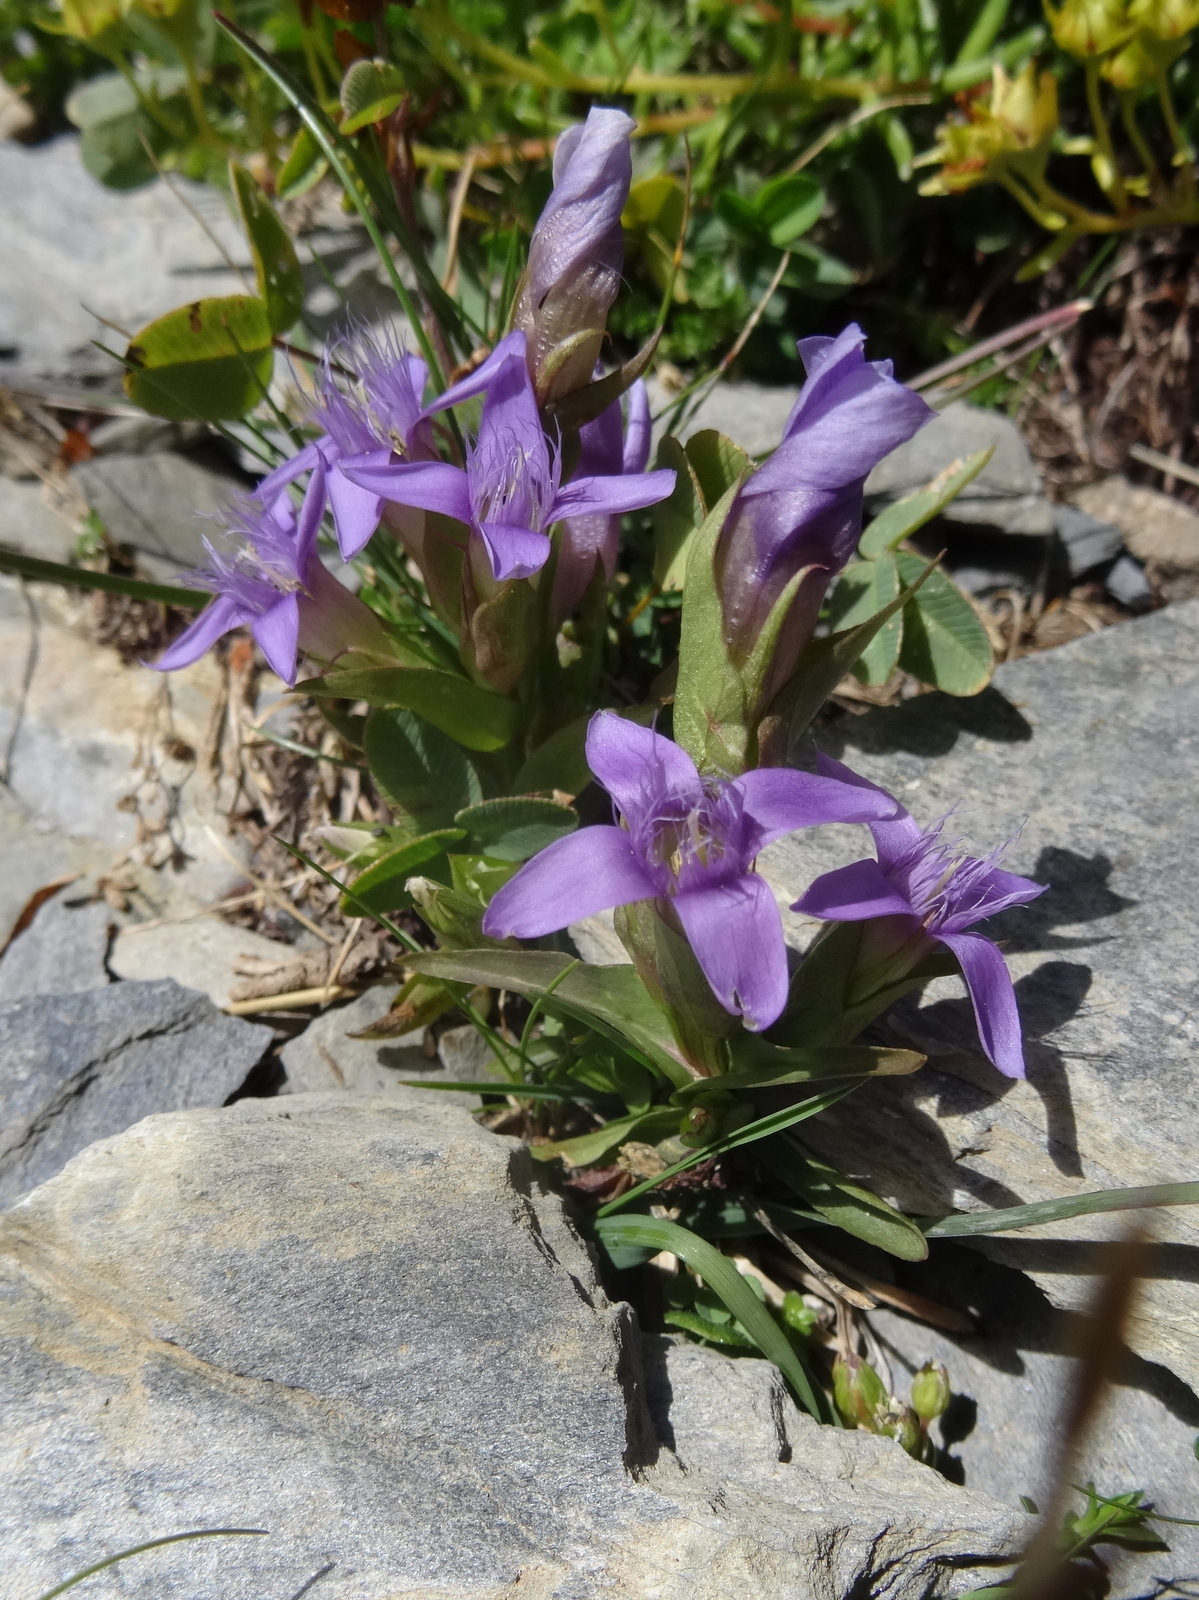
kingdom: Plantae
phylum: Tracheophyta
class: Magnoliopsida
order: Gentianales
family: Gentianaceae
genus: Gentianella
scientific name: Gentianella campestris
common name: Field gentian
